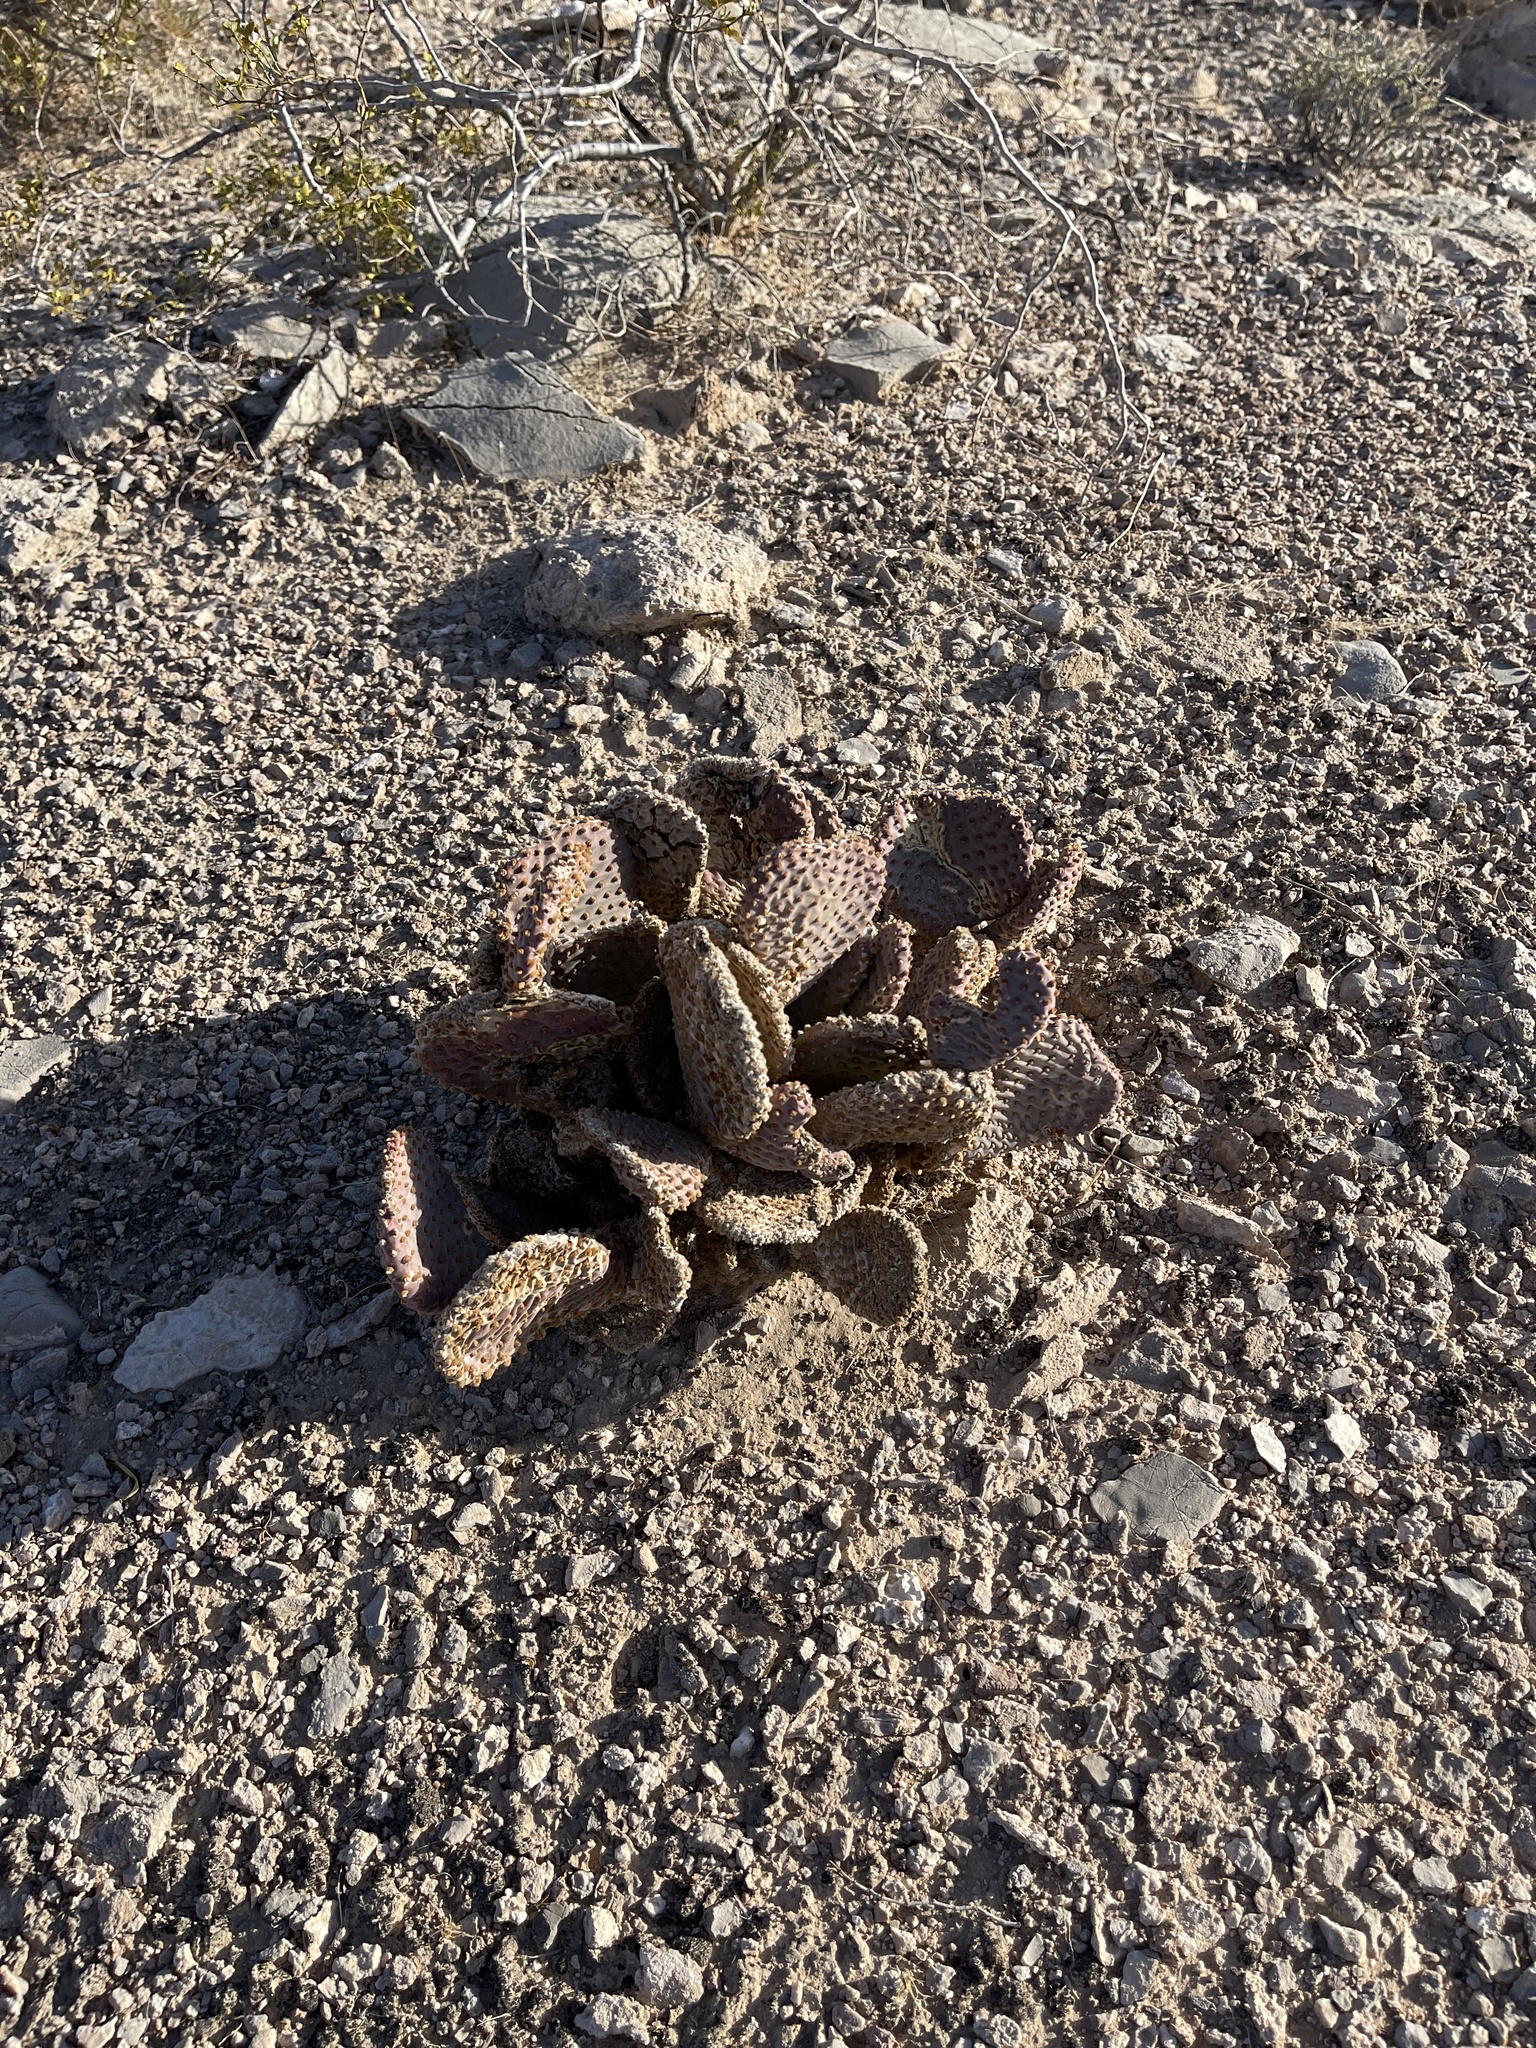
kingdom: Plantae
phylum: Tracheophyta
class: Magnoliopsida
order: Caryophyllales
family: Cactaceae
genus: Opuntia
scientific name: Opuntia basilaris
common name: Beavertail prickly-pear
